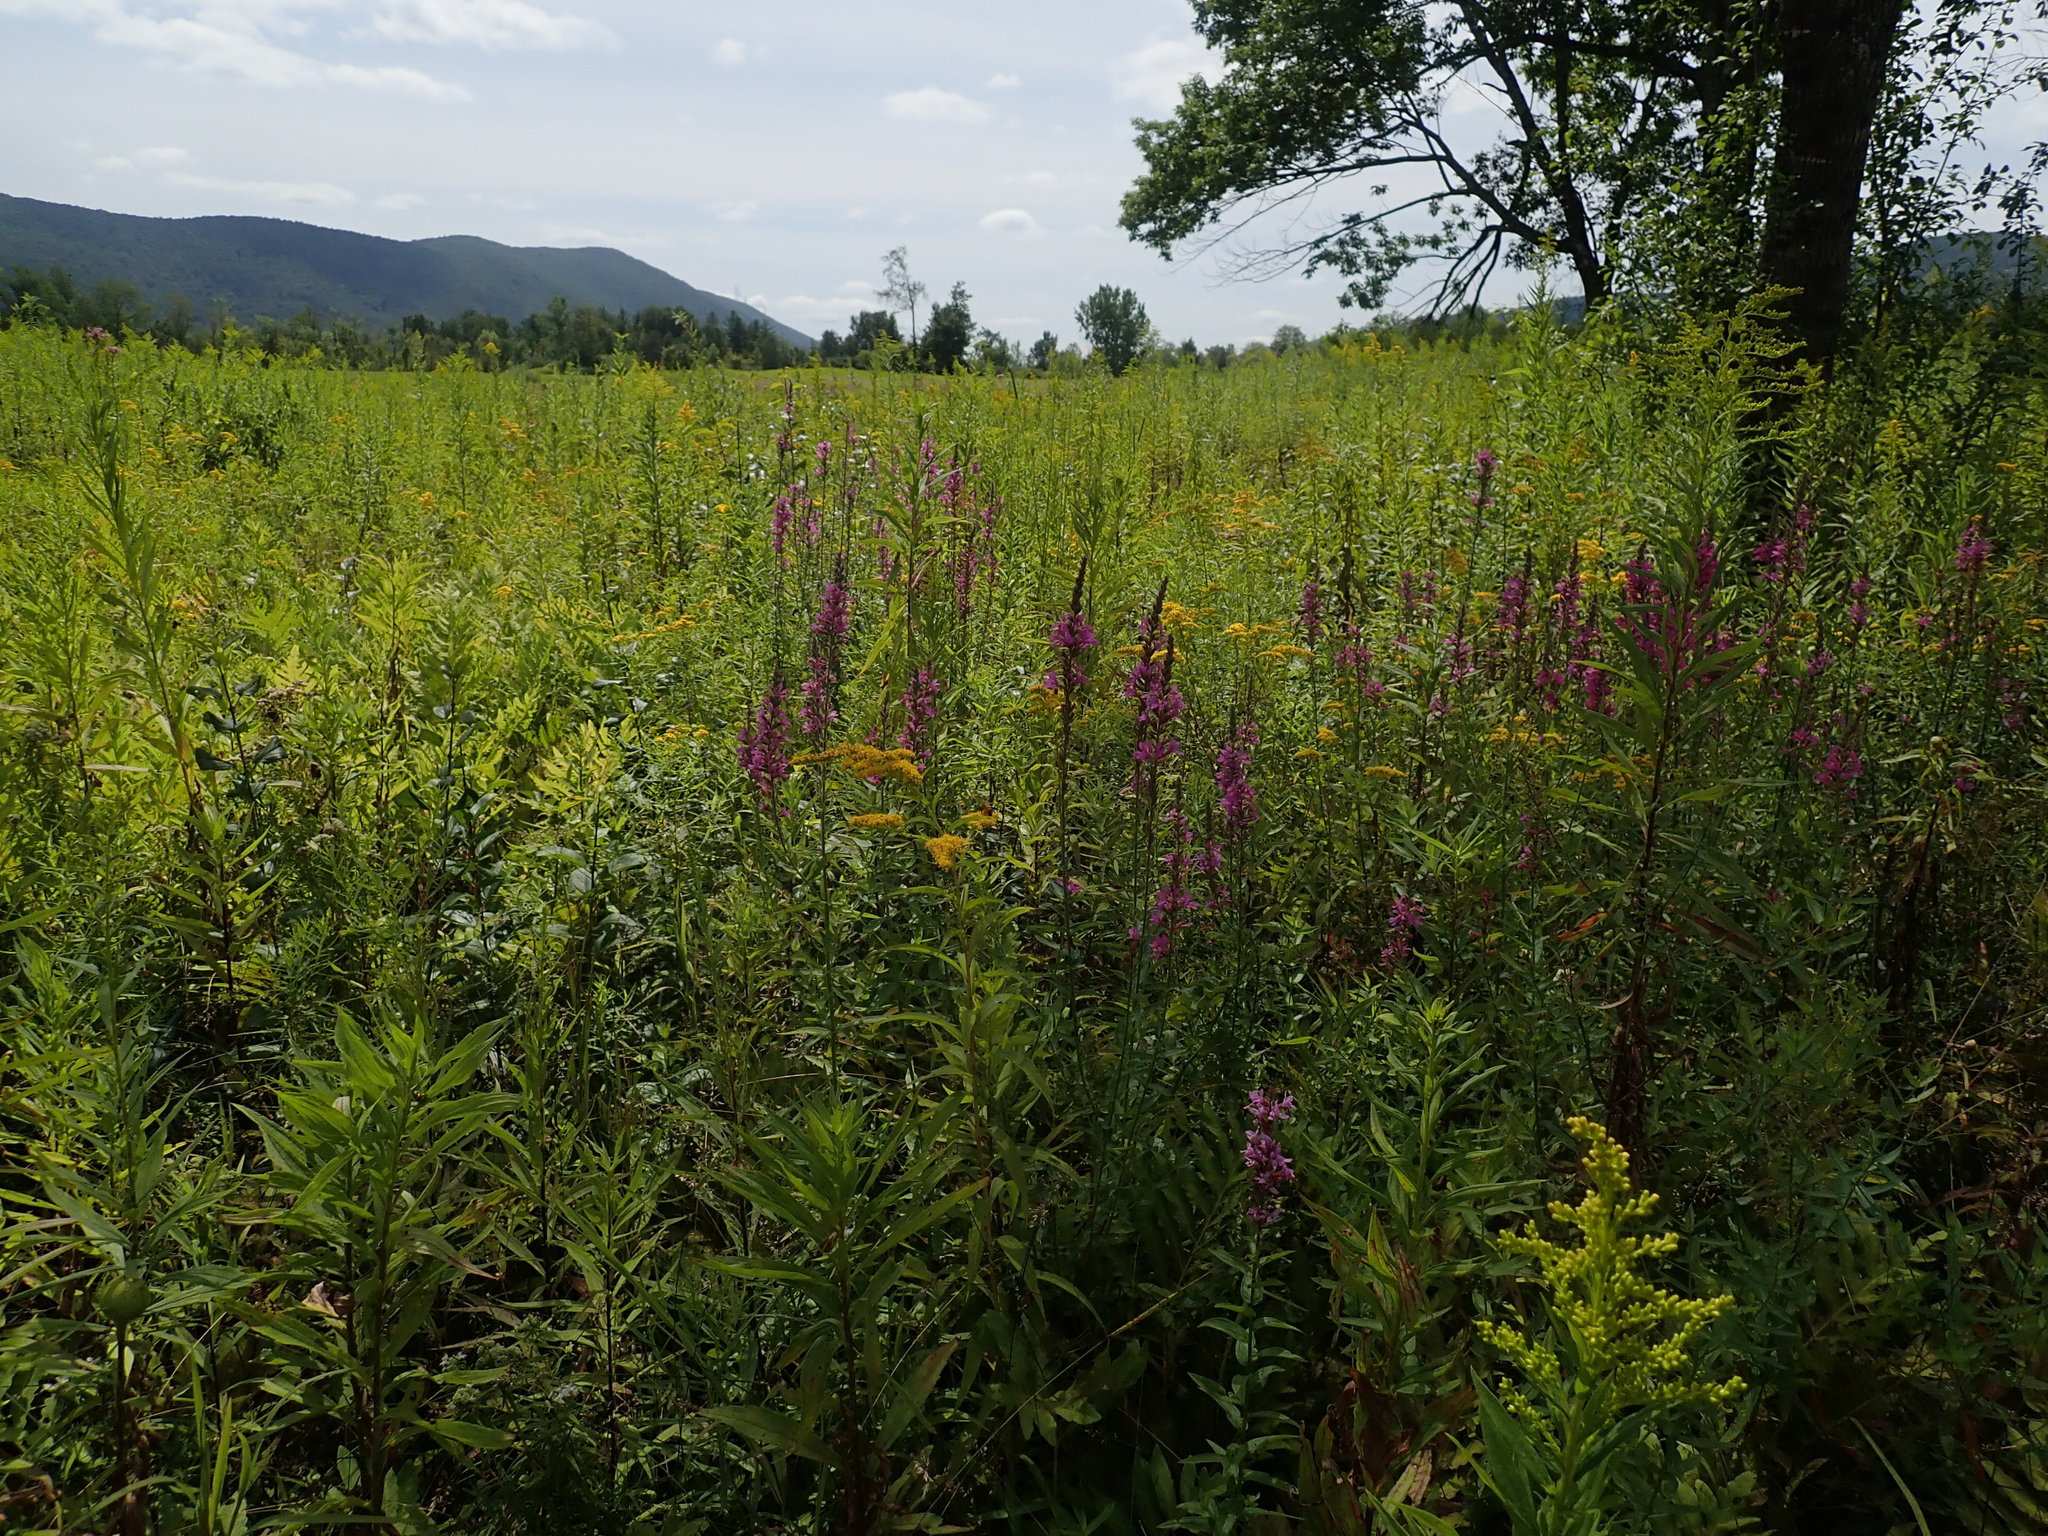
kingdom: Plantae
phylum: Tracheophyta
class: Magnoliopsida
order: Myrtales
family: Lythraceae
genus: Lythrum
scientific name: Lythrum salicaria
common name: Purple loosestrife
